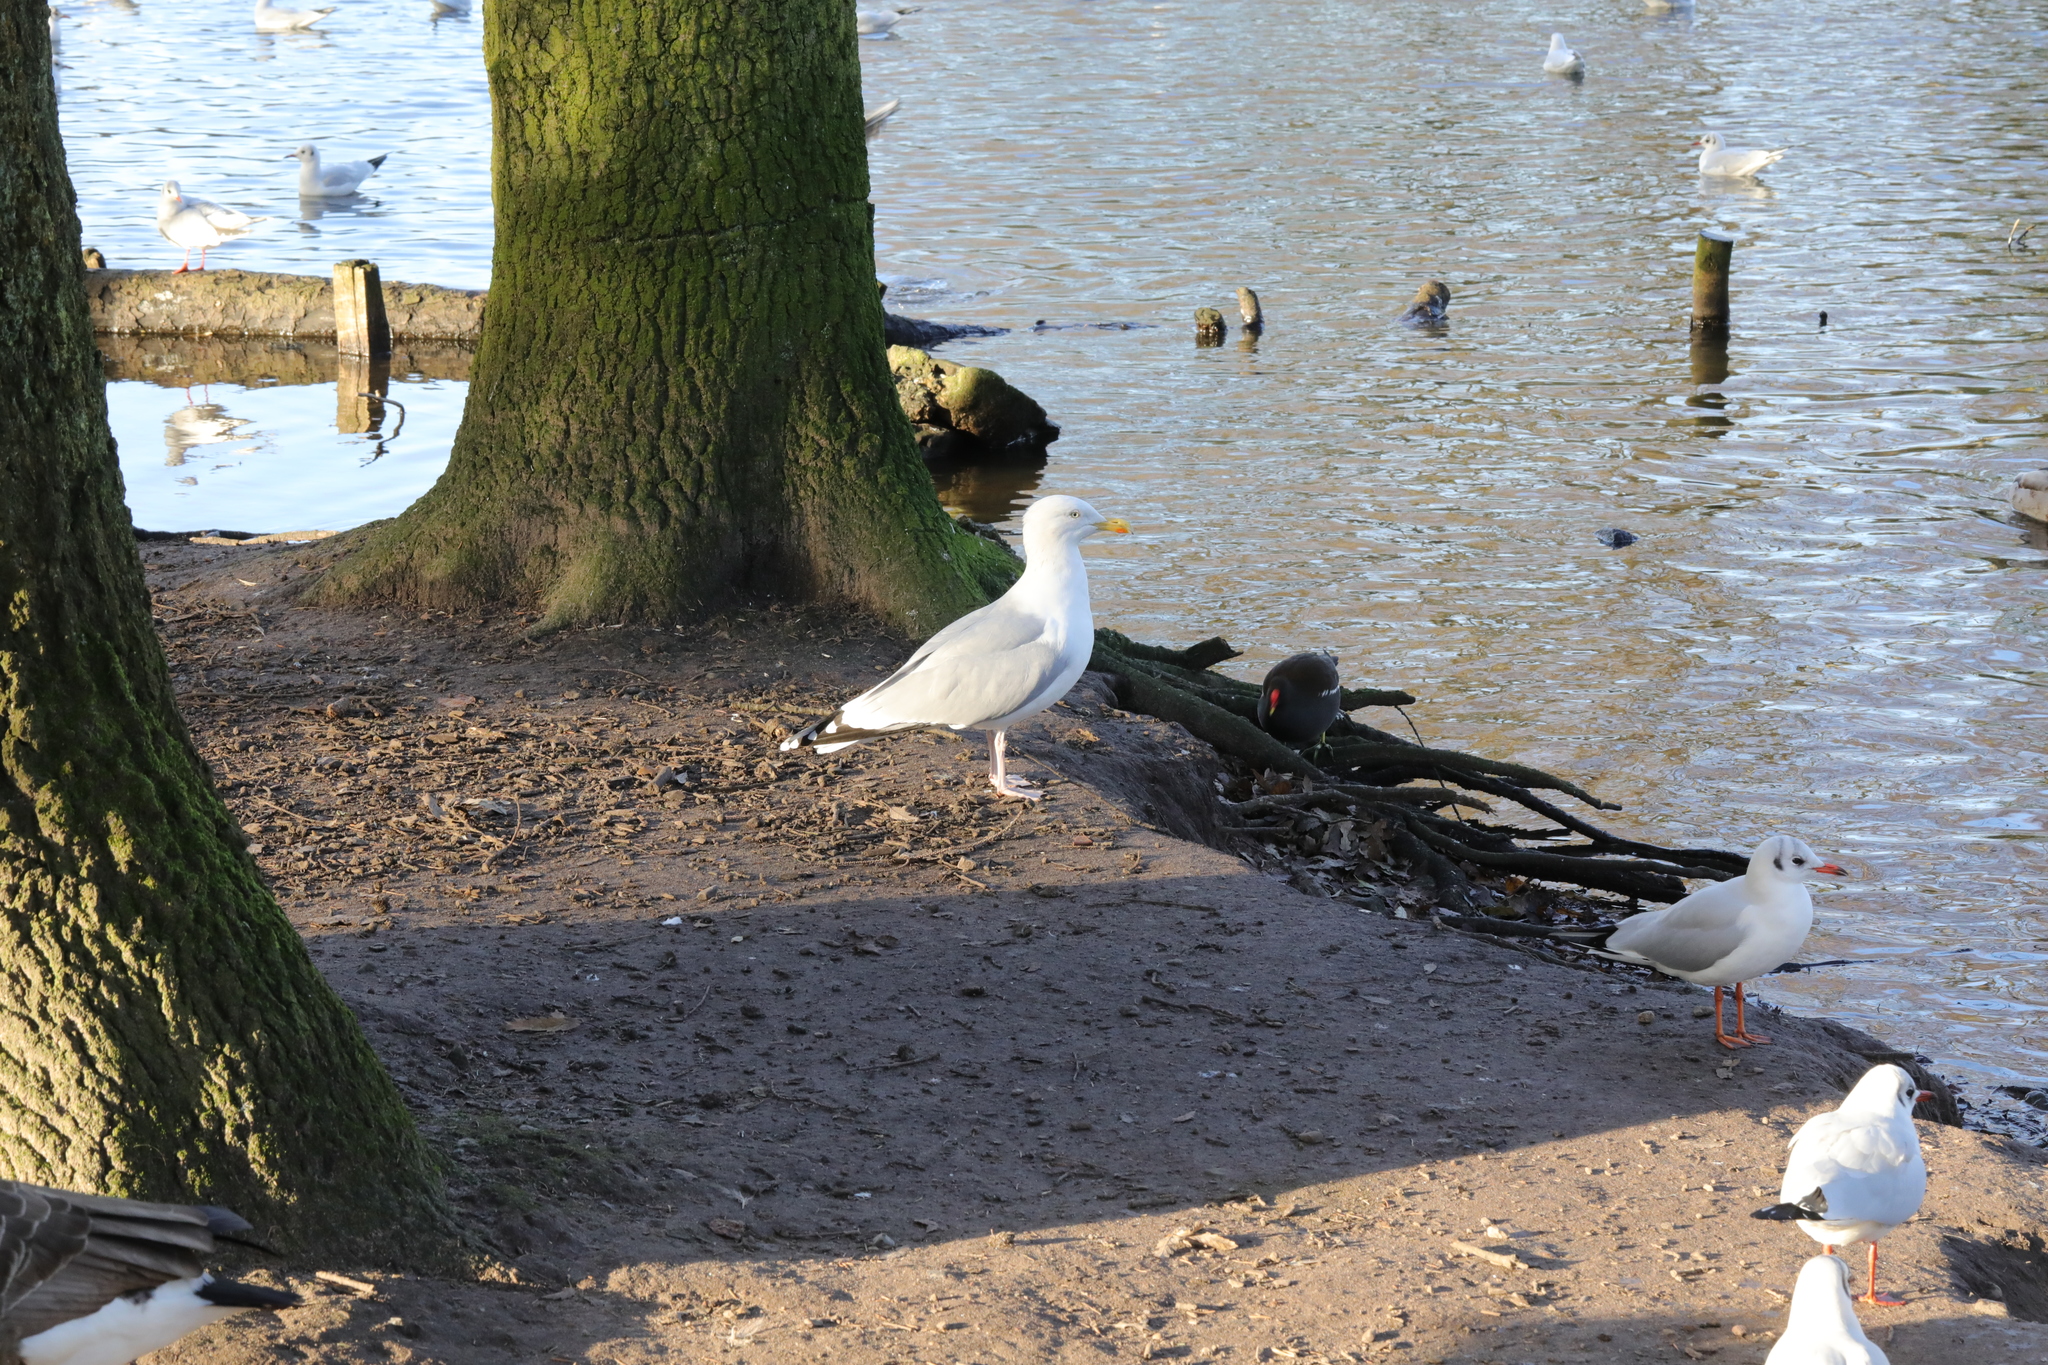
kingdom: Animalia
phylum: Chordata
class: Aves
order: Charadriiformes
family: Laridae
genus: Larus
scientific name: Larus argentatus
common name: Herring gull
